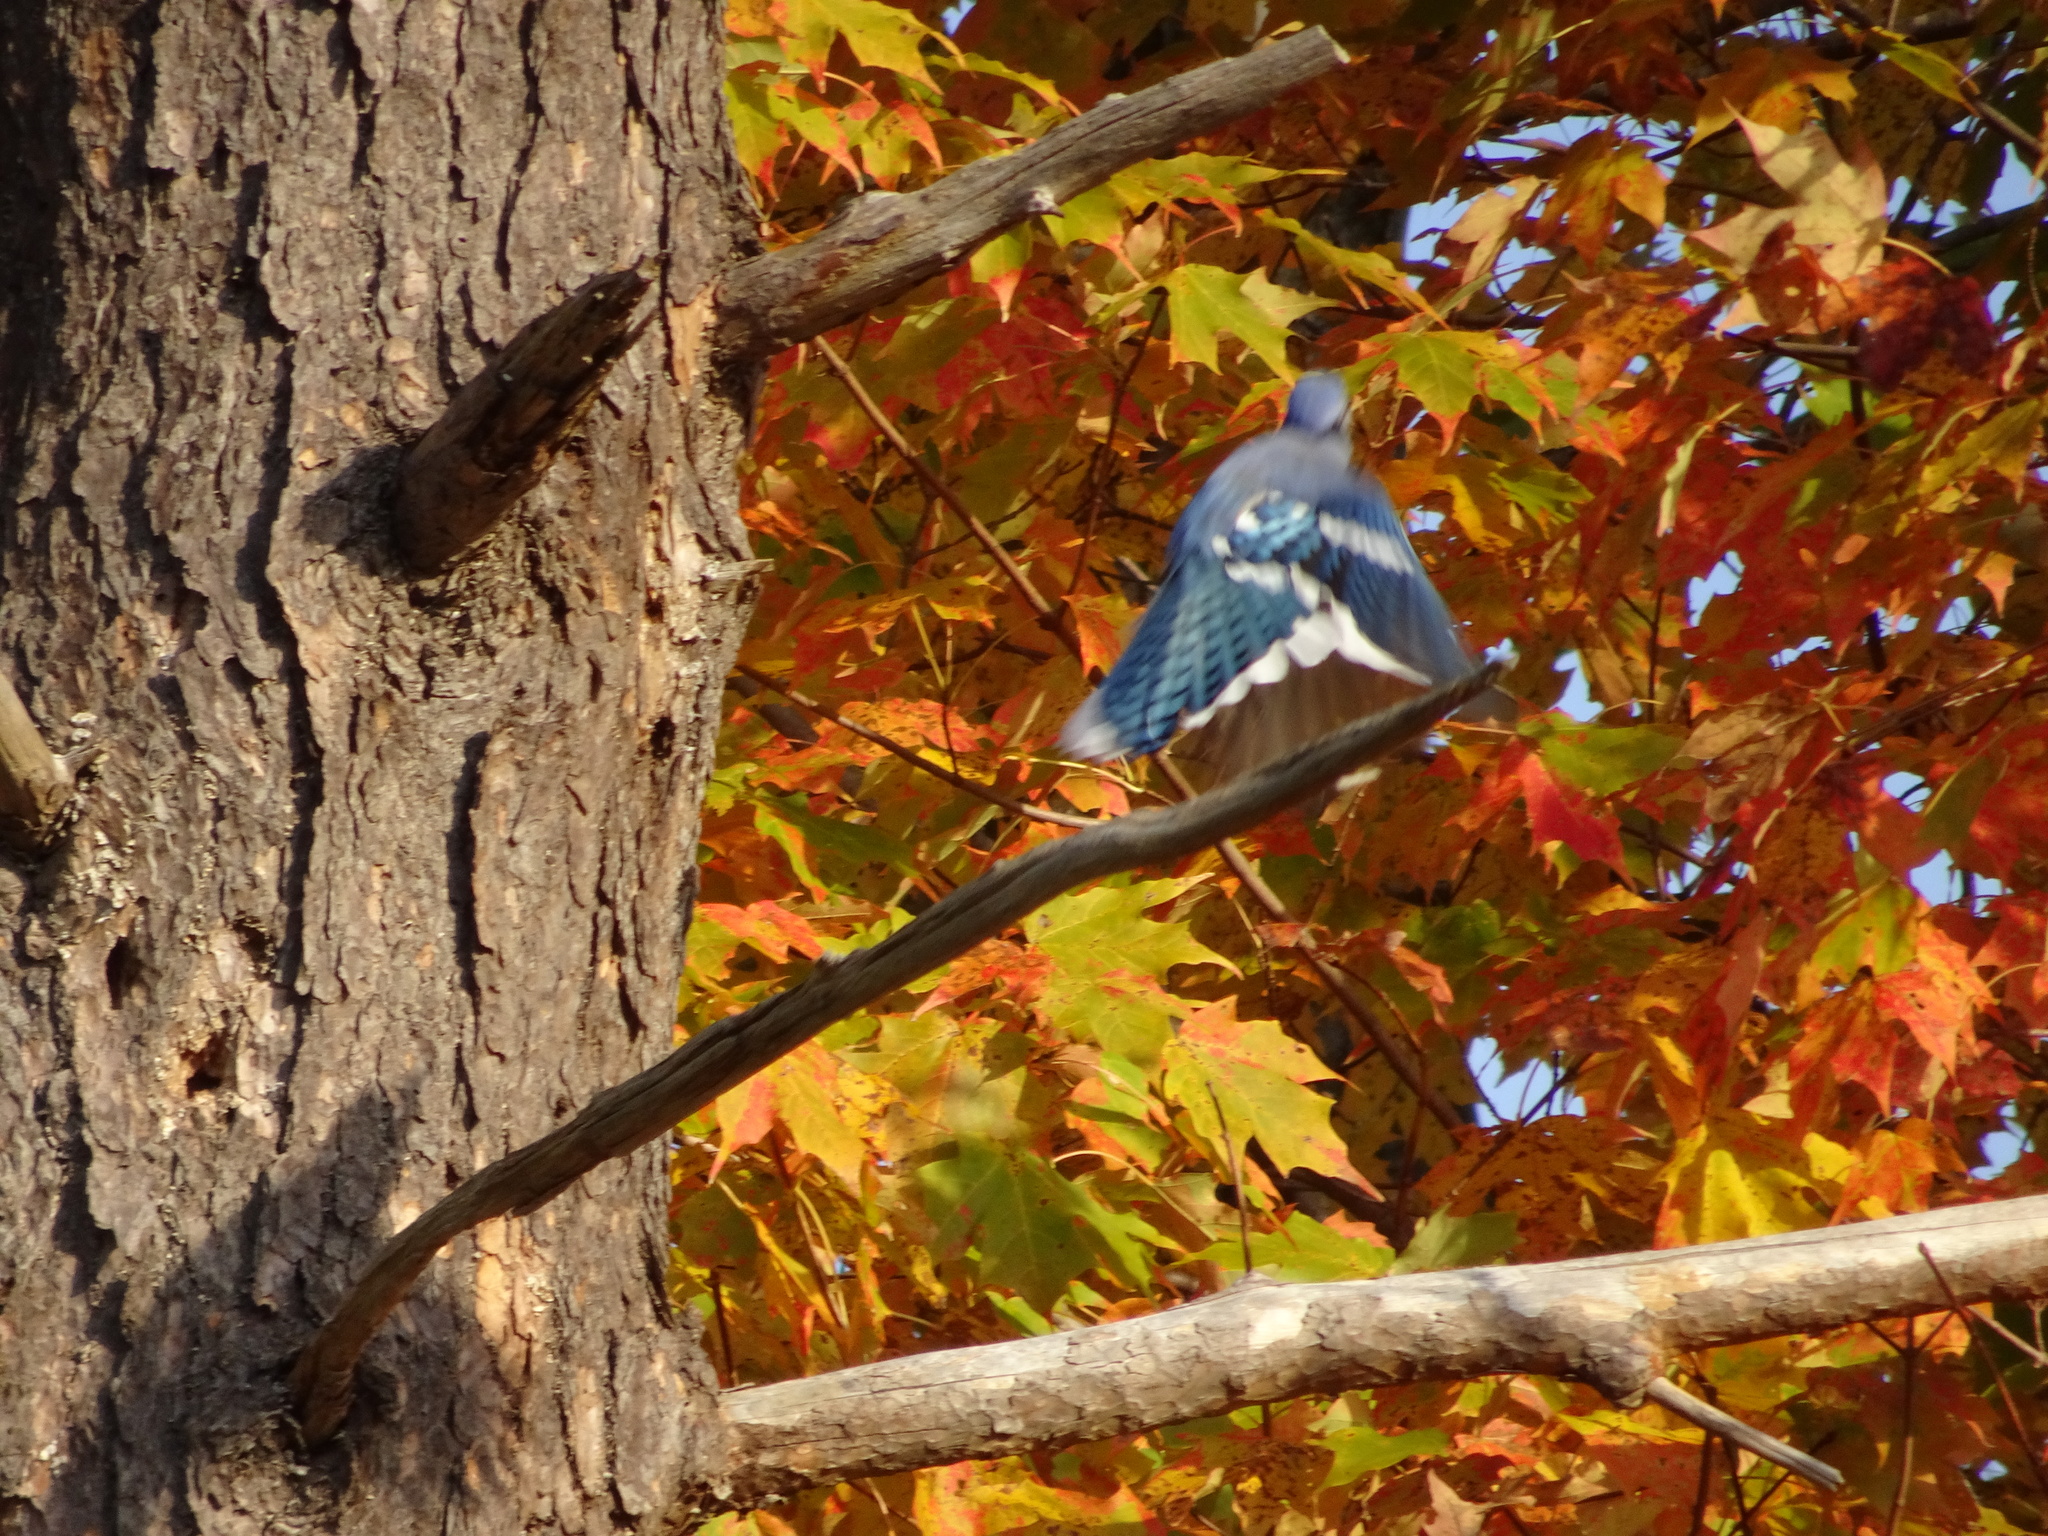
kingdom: Animalia
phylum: Chordata
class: Aves
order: Passeriformes
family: Corvidae
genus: Cyanocitta
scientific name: Cyanocitta cristata
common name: Blue jay
